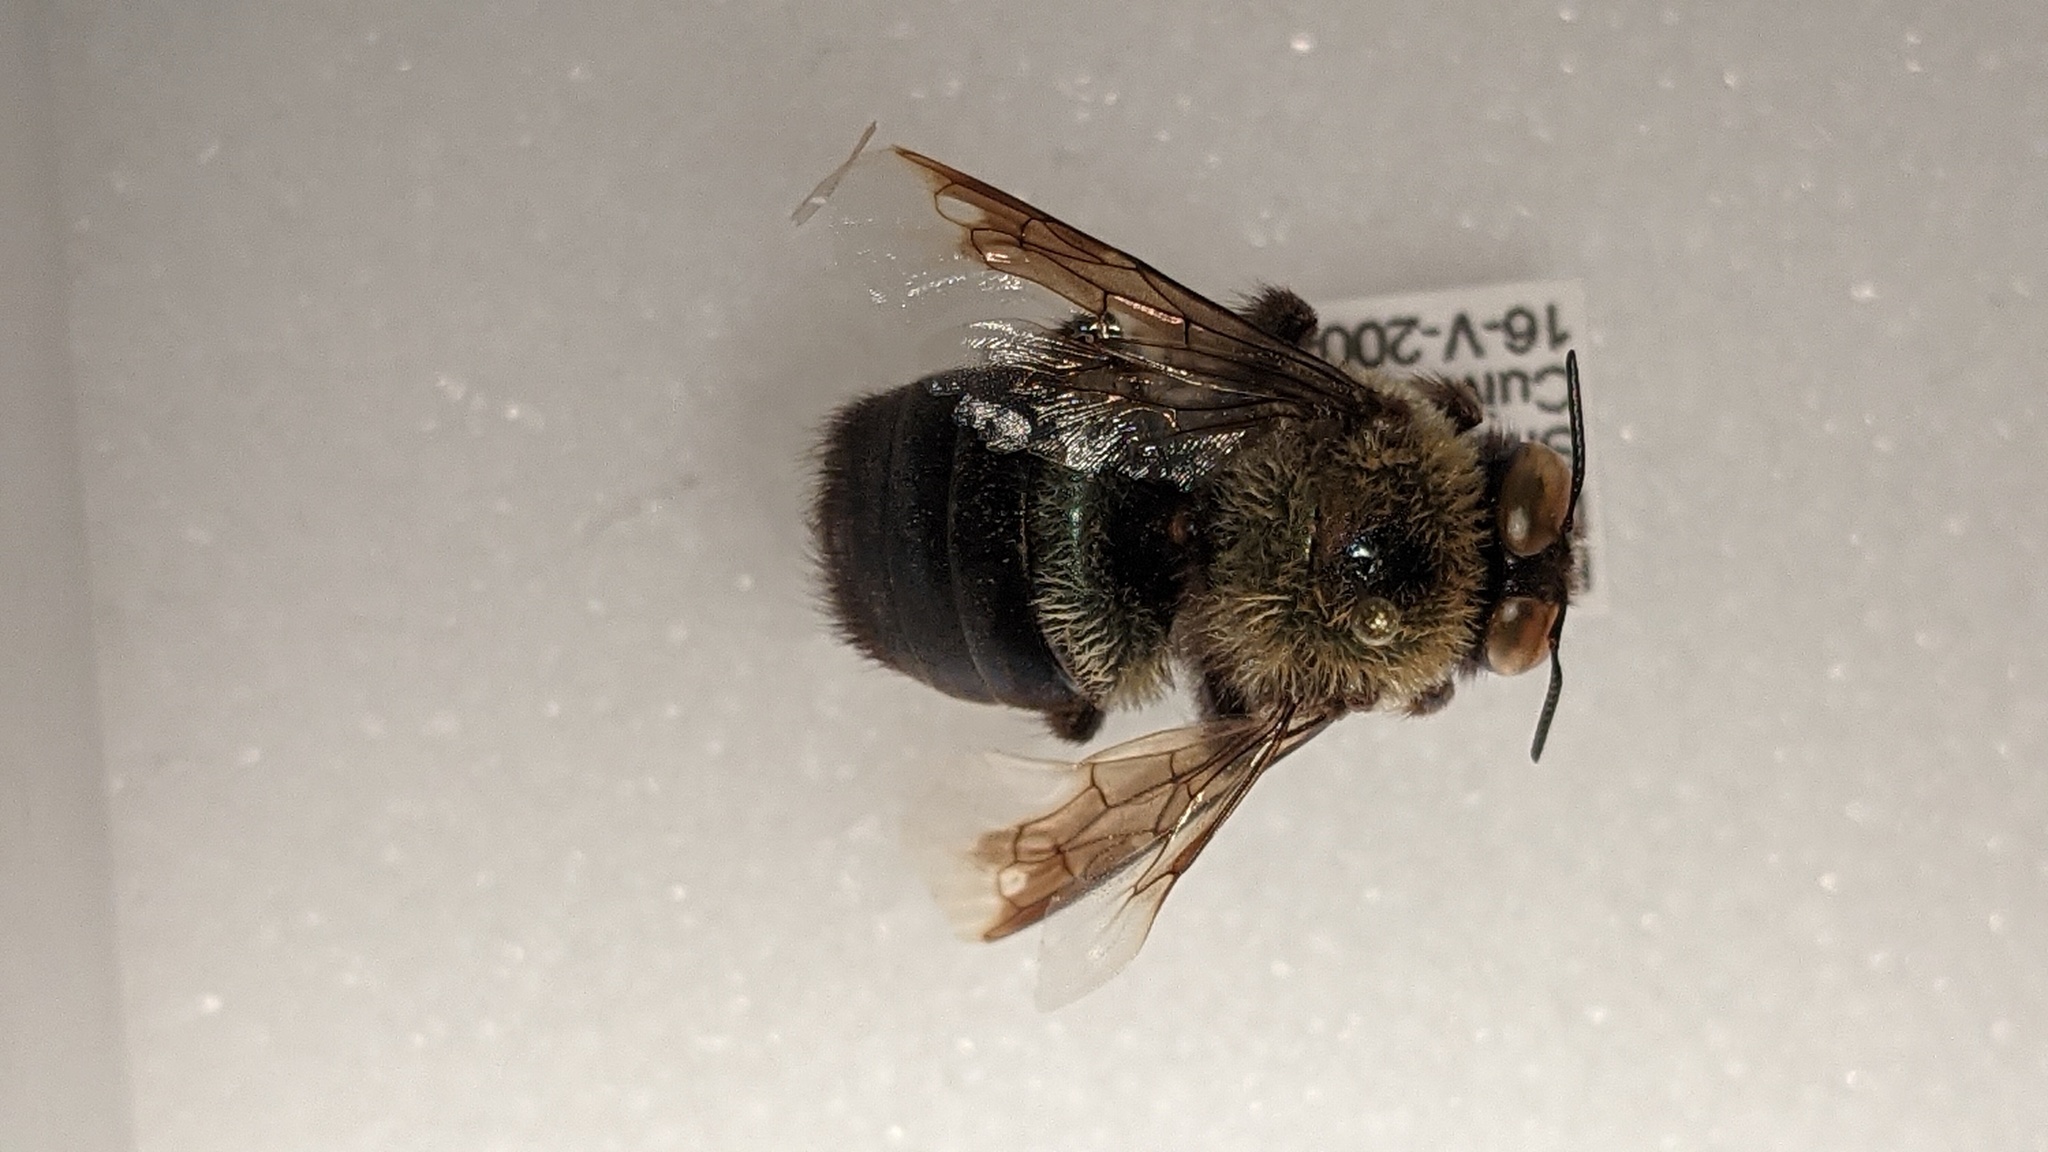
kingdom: Animalia
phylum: Arthropoda
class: Insecta
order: Hymenoptera
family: Apidae
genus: Xylocopa
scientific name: Xylocopa virginica
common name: Carpenter bee
